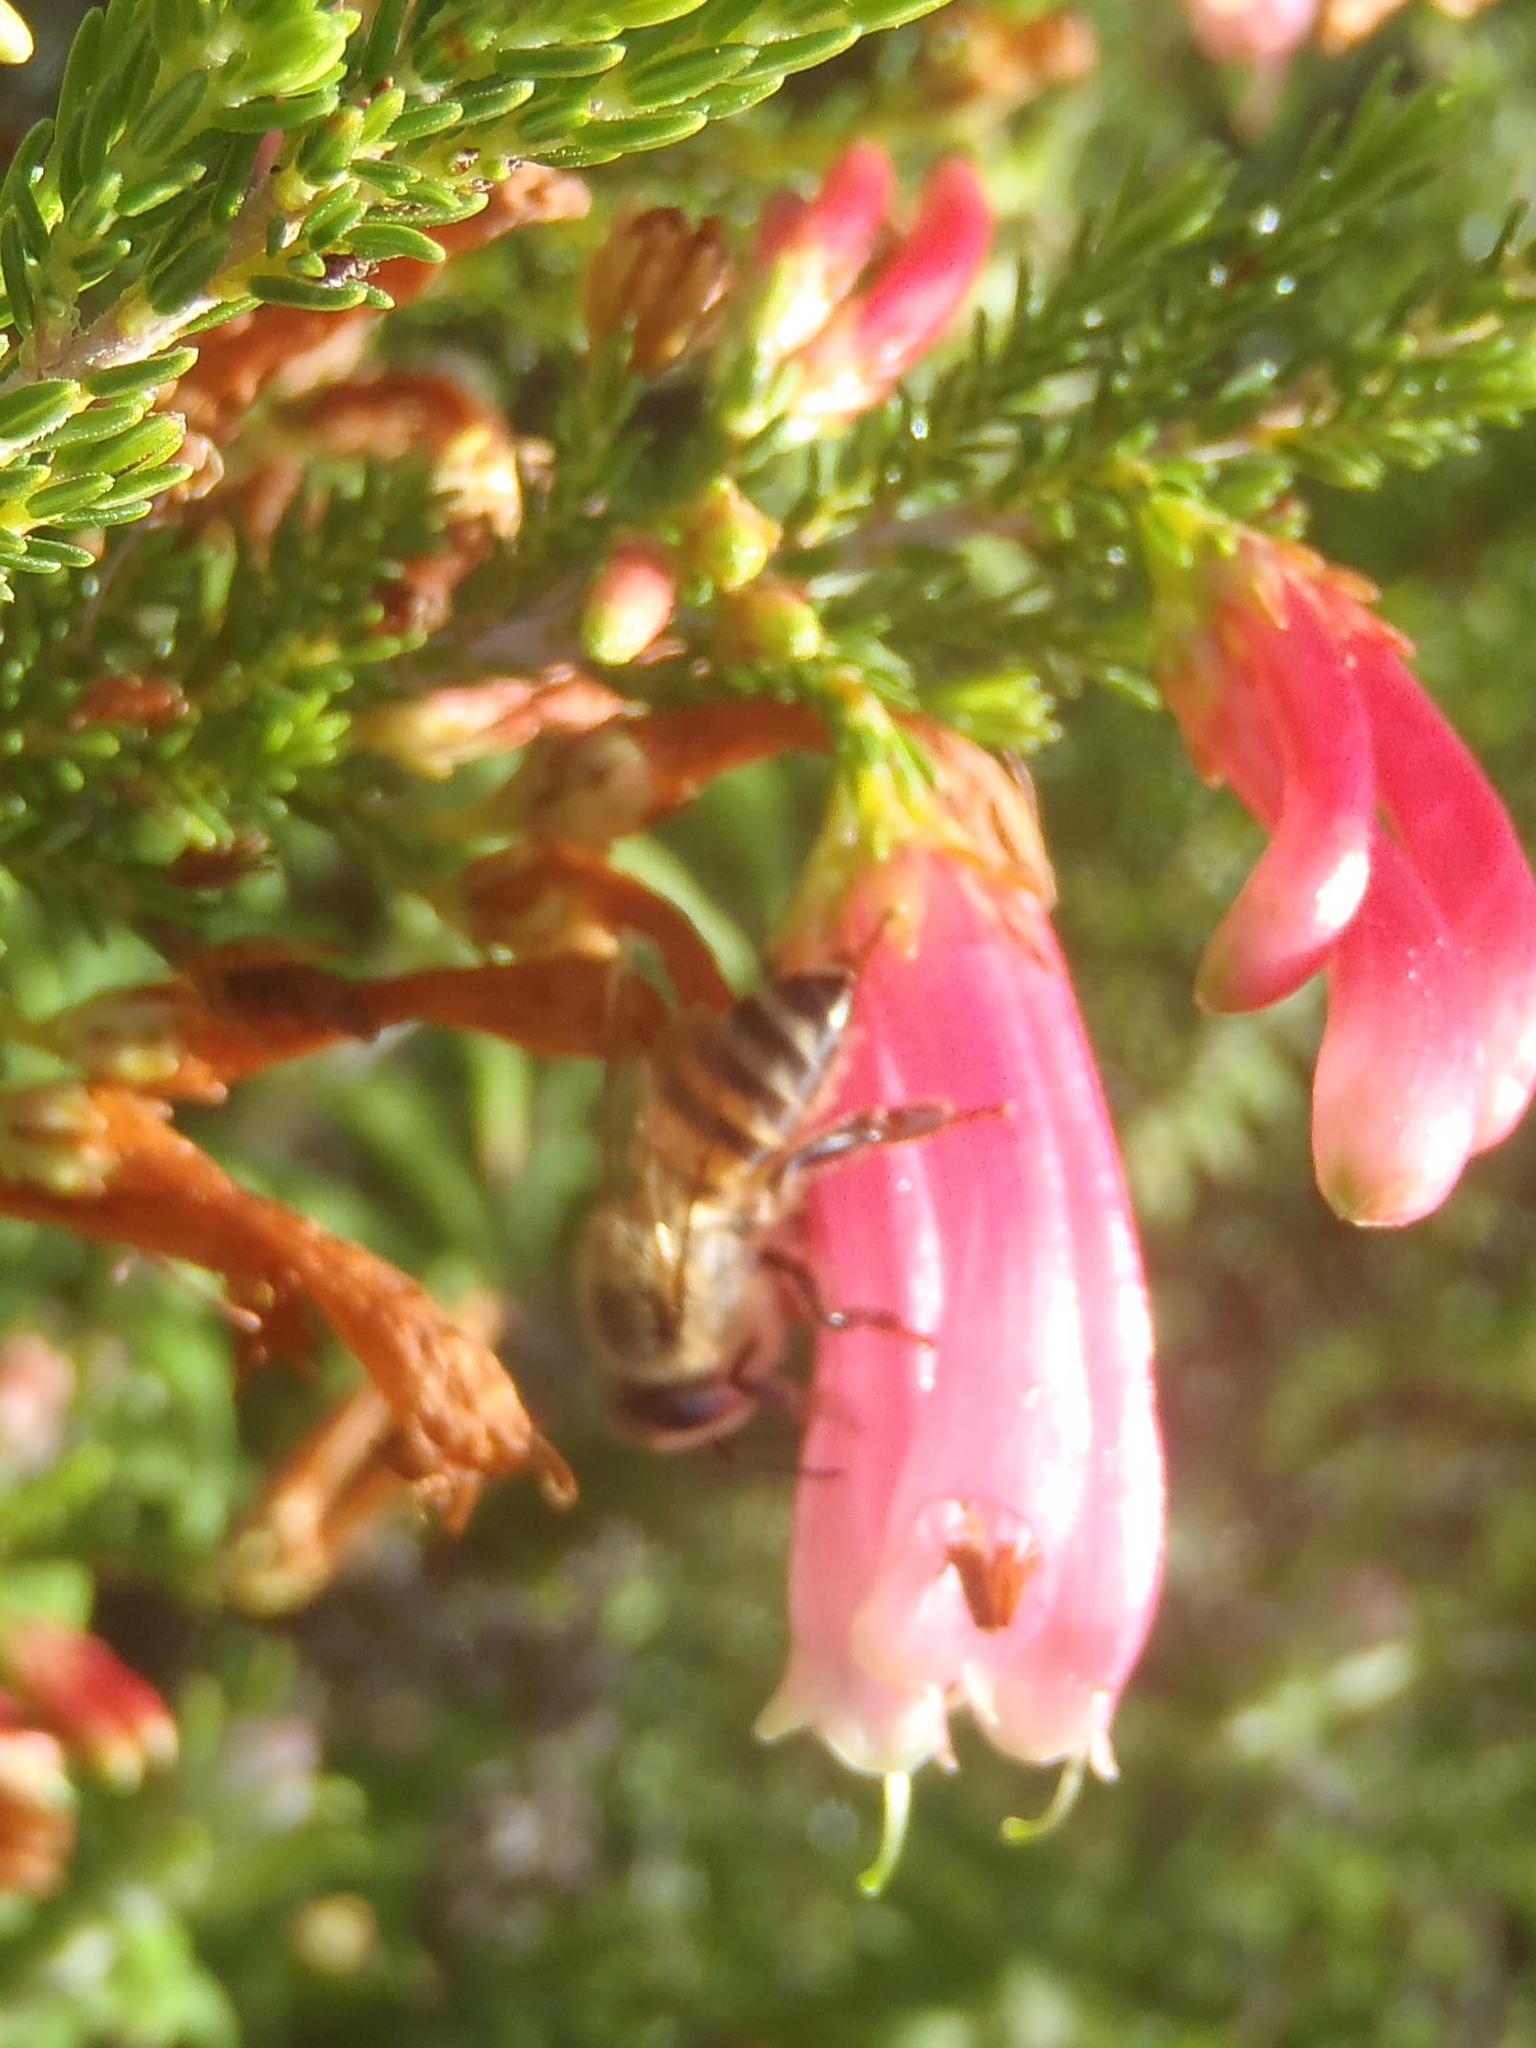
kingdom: Animalia
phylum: Arthropoda
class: Insecta
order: Hymenoptera
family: Apidae
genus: Apis
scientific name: Apis mellifera
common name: Honey bee
